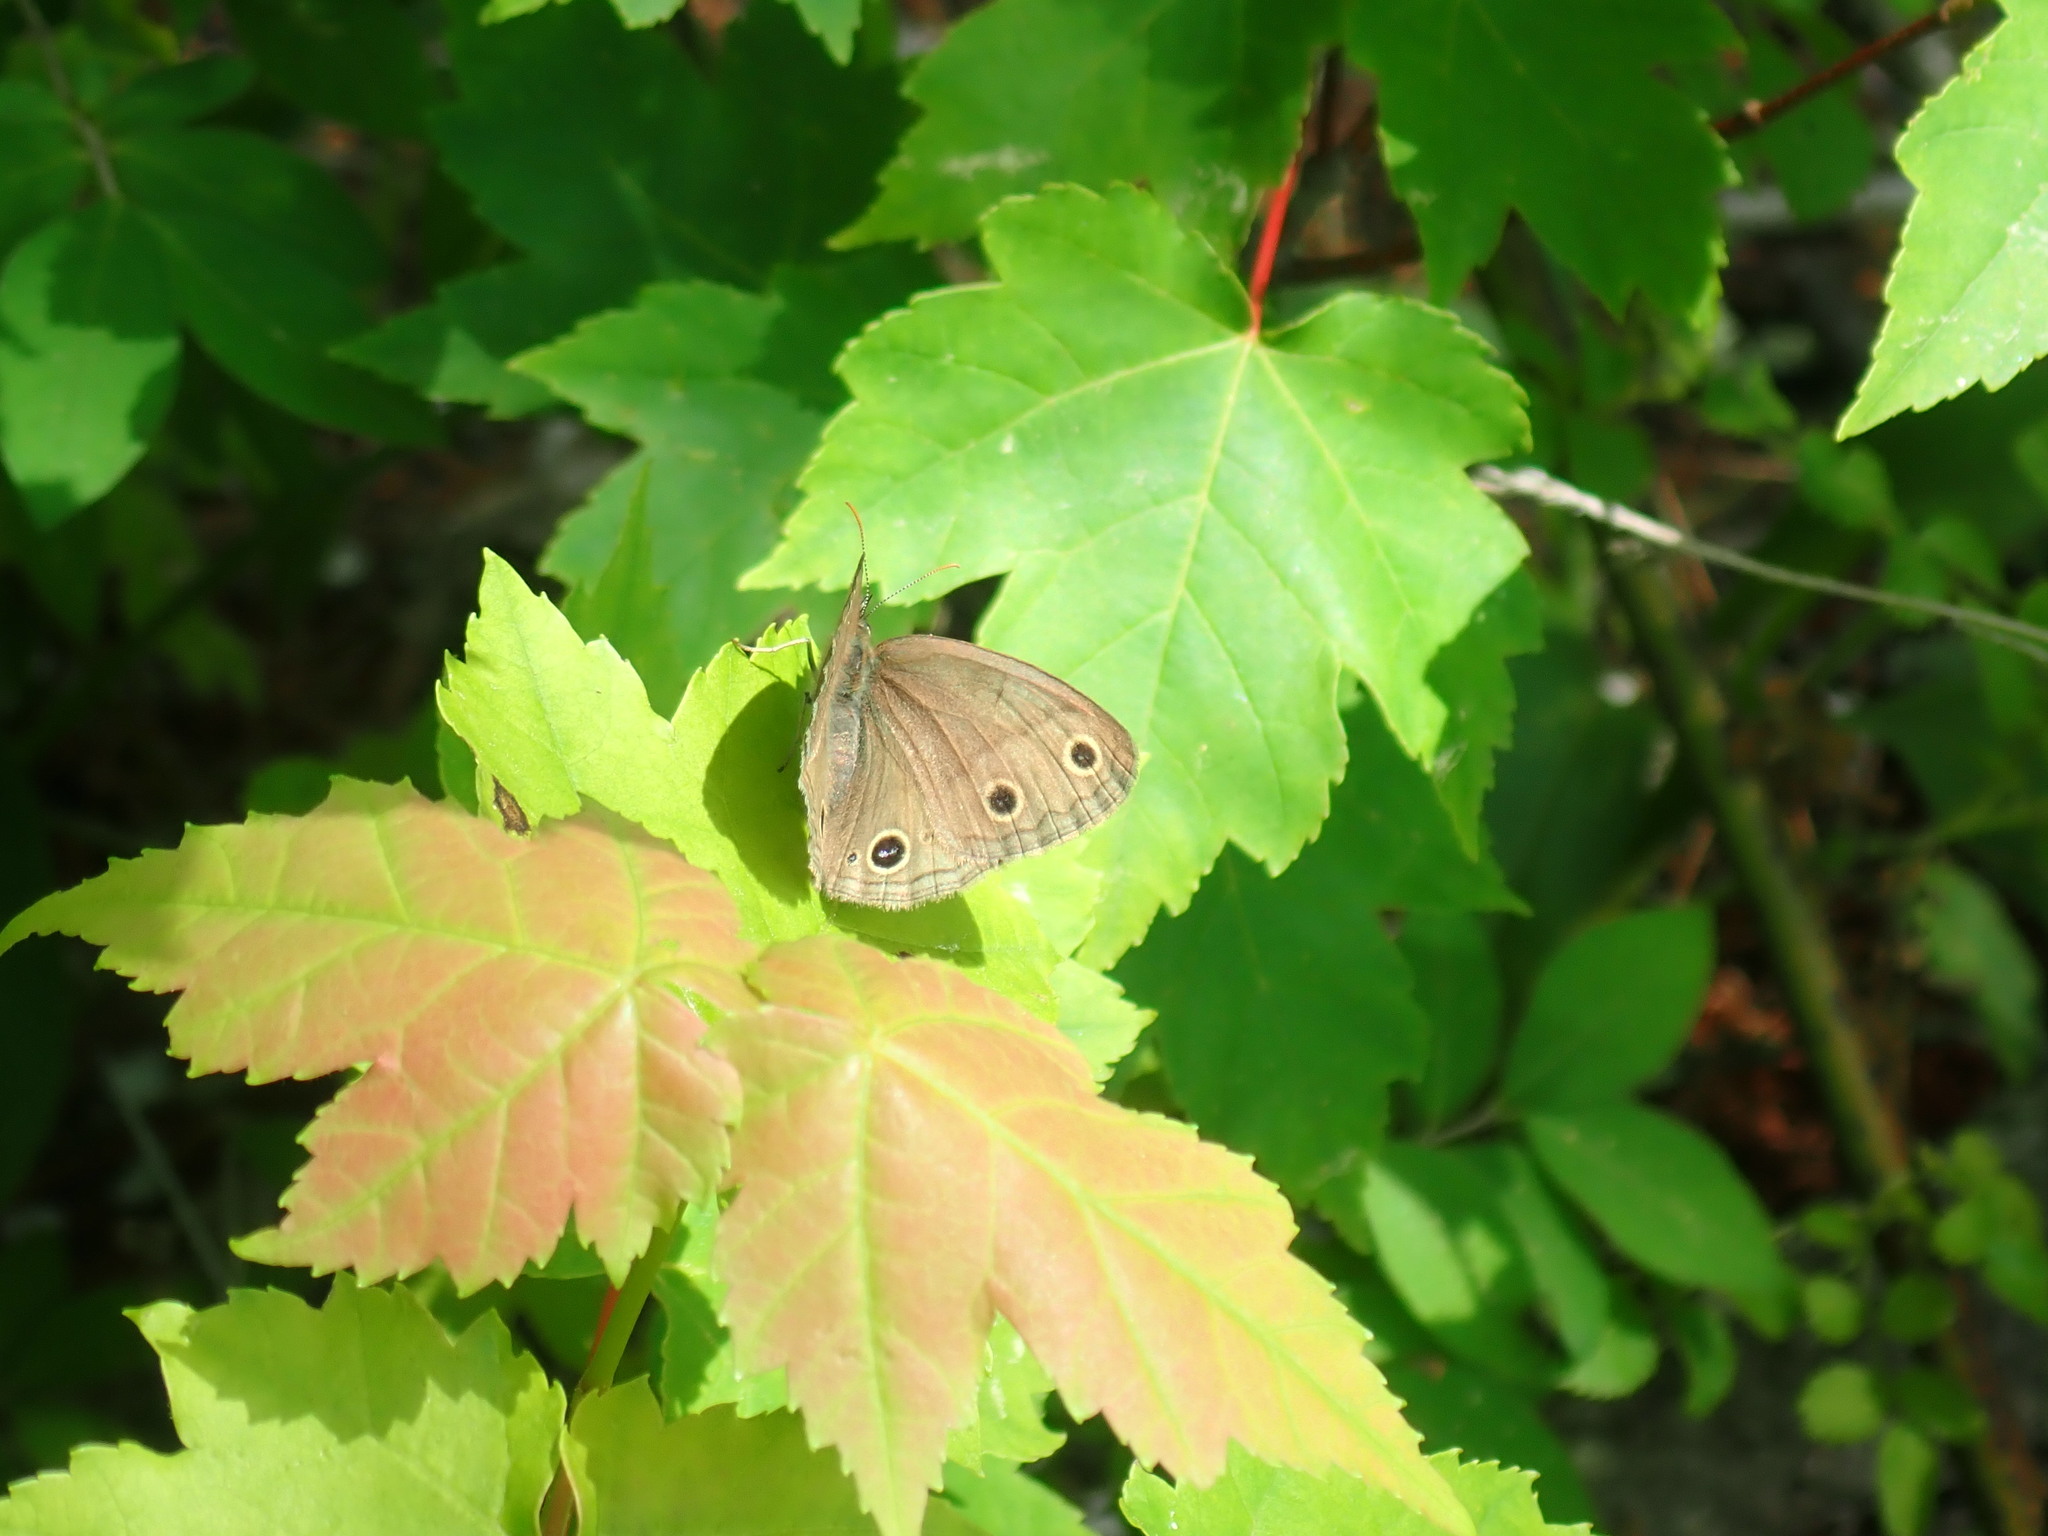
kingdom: Animalia
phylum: Arthropoda
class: Insecta
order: Lepidoptera
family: Nymphalidae
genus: Euptychia
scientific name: Euptychia cymela
